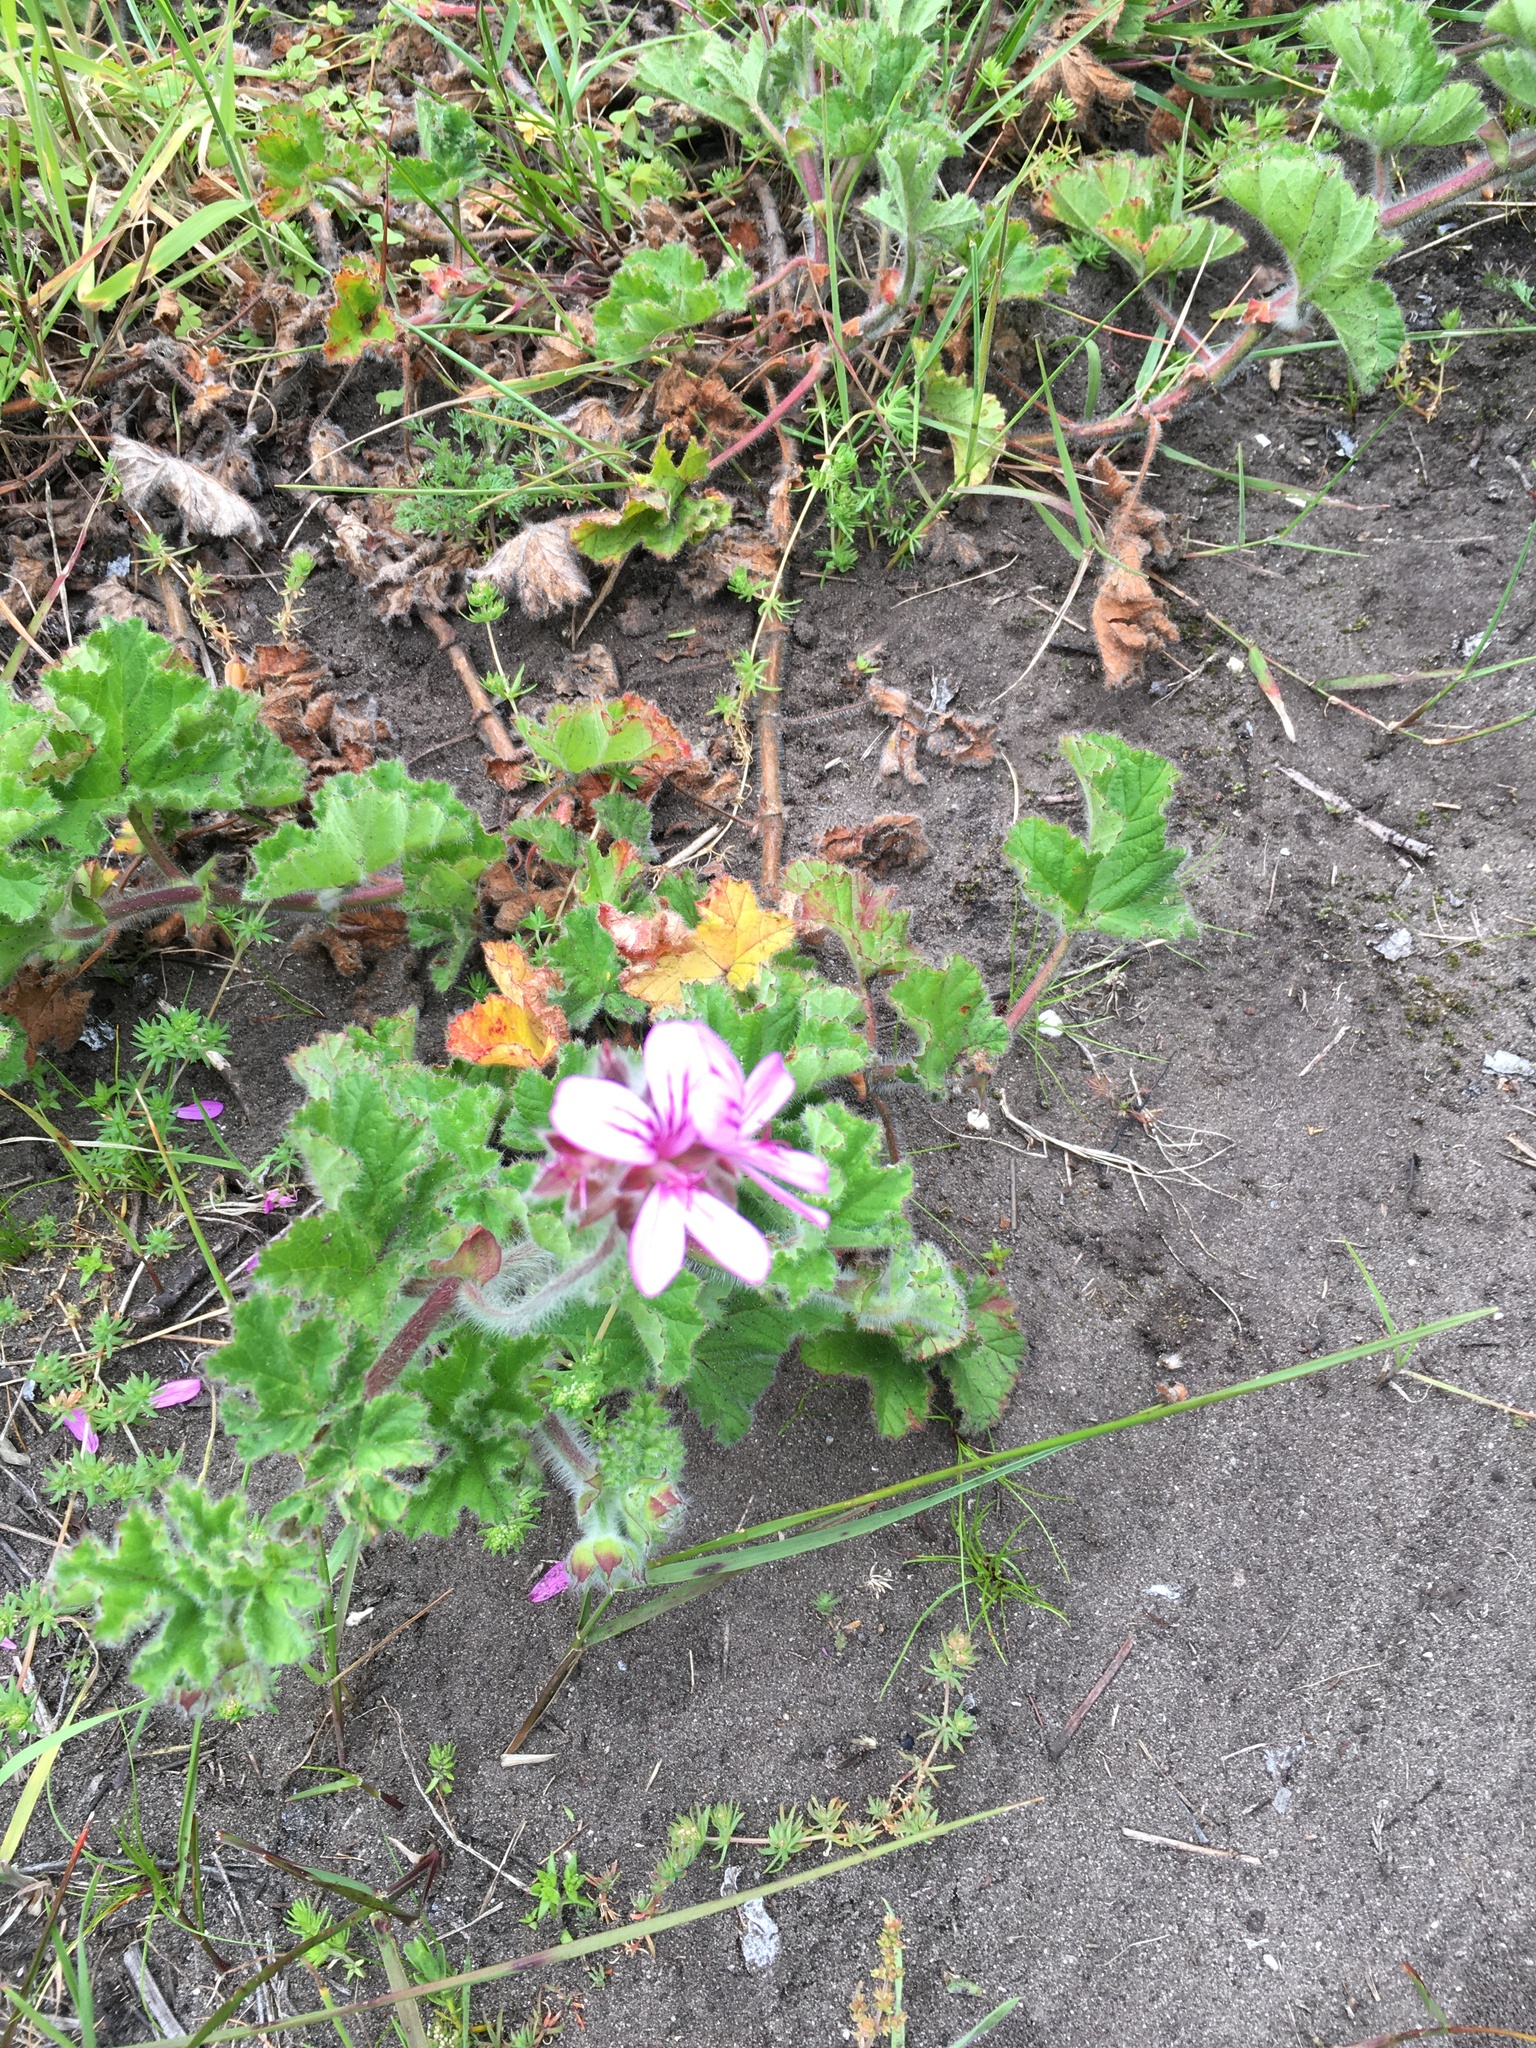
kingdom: Plantae
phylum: Tracheophyta
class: Magnoliopsida
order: Geraniales
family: Geraniaceae
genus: Pelargonium
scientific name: Pelargonium capitatum
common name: Rose scented geranium
